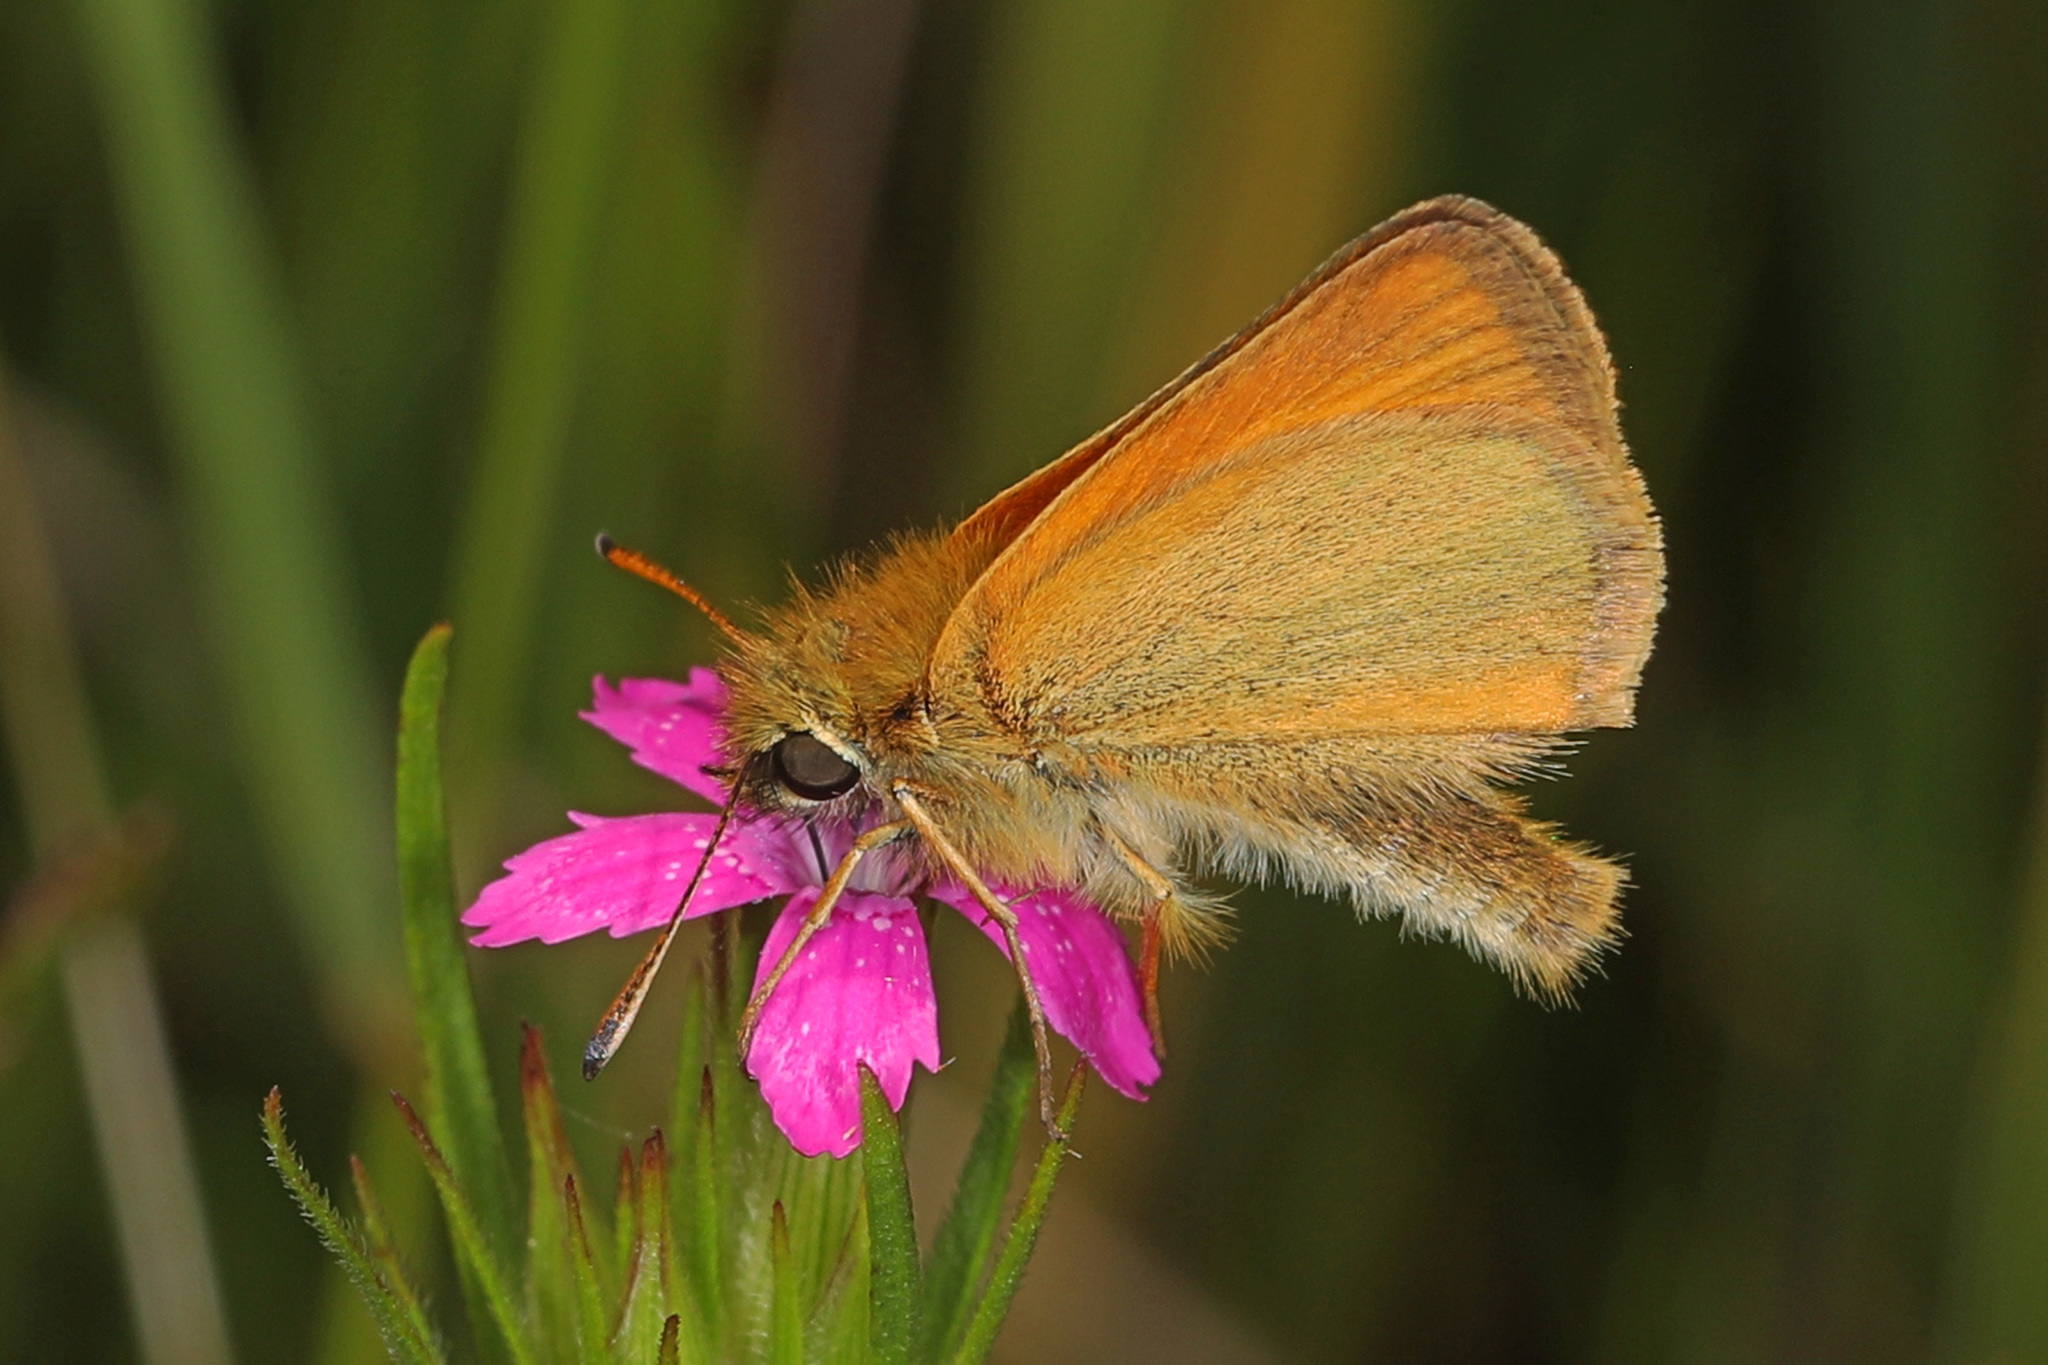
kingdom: Animalia
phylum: Arthropoda
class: Insecta
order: Lepidoptera
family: Hesperiidae
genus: Thymelicus
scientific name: Thymelicus lineola
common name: Essex skipper
